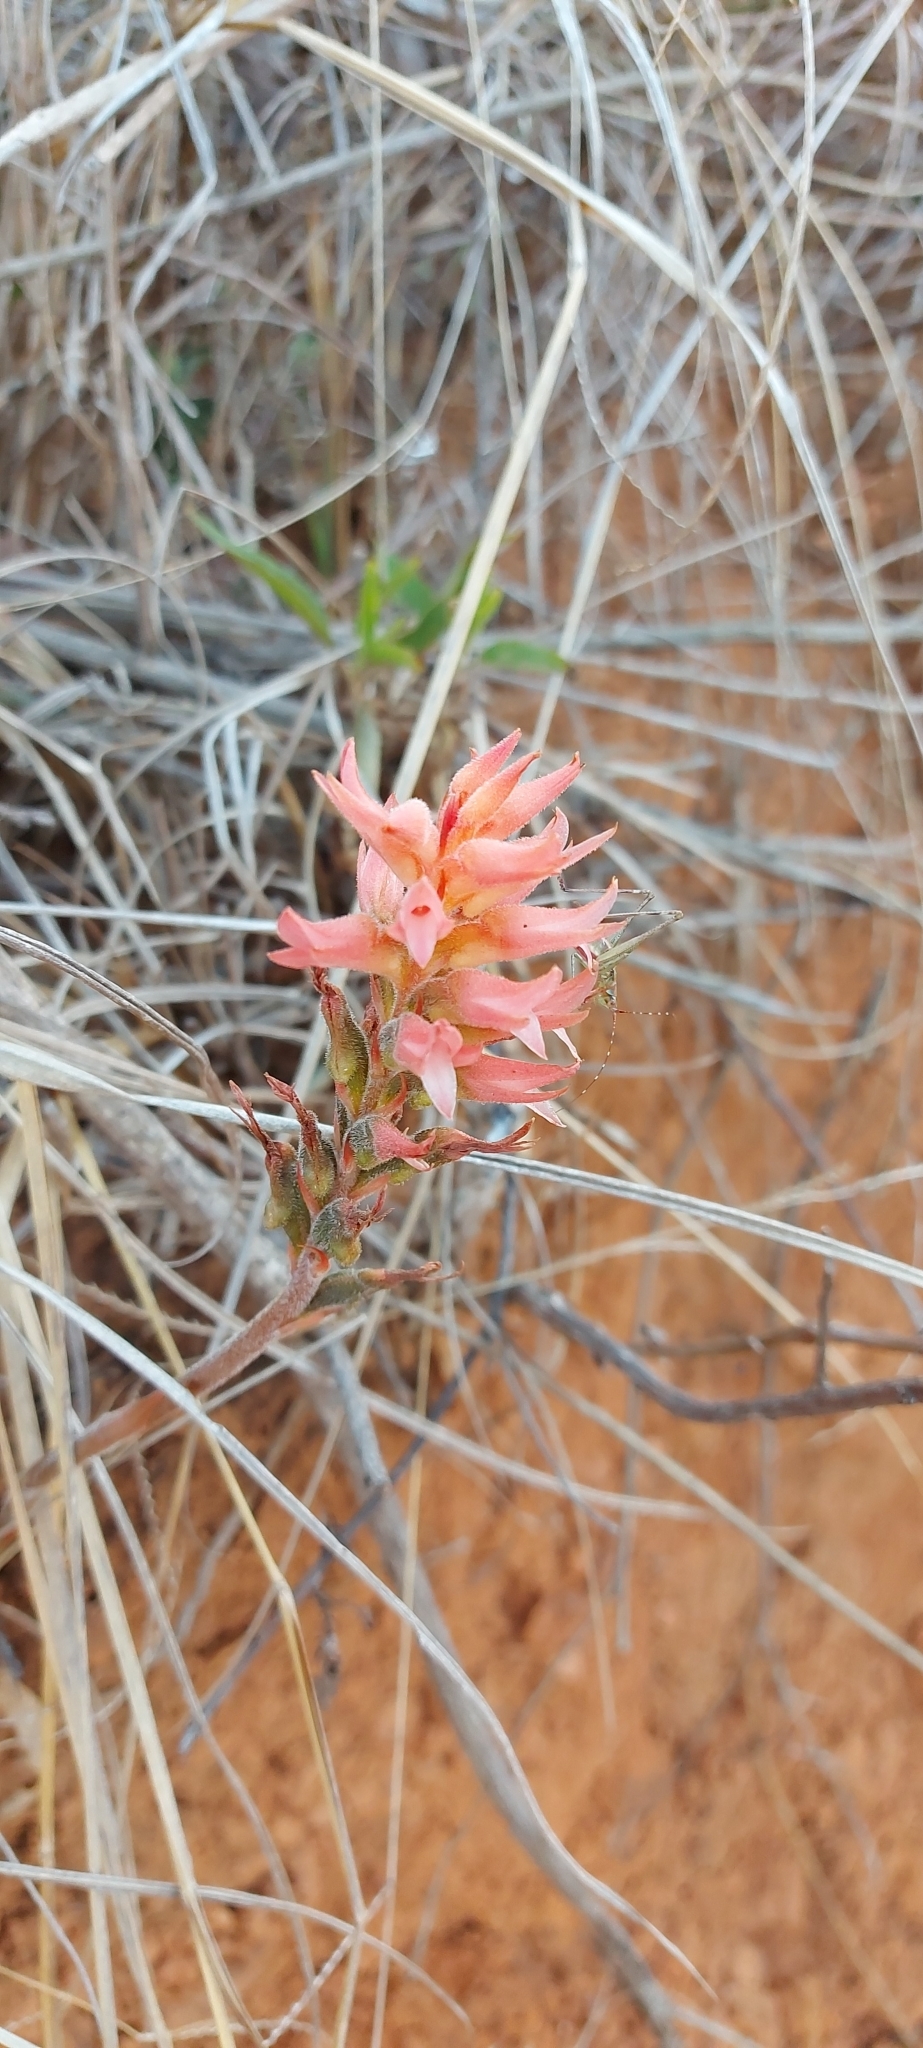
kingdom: Plantae
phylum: Tracheophyta
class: Liliopsida
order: Asparagales
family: Orchidaceae
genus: Sacoila
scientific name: Sacoila lanceolata
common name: Leafless beaked ladiestresses
